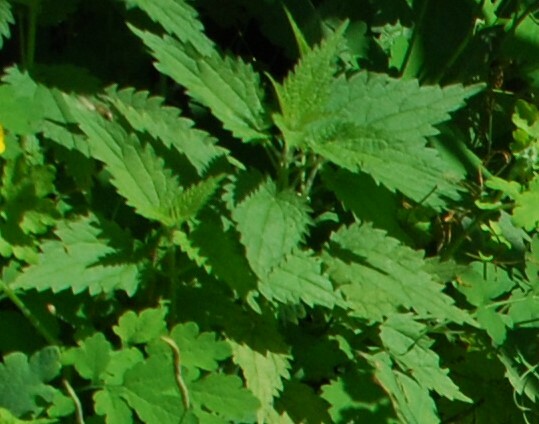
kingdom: Plantae
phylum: Tracheophyta
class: Magnoliopsida
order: Rosales
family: Urticaceae
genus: Urtica
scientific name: Urtica dioica
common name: Common nettle
